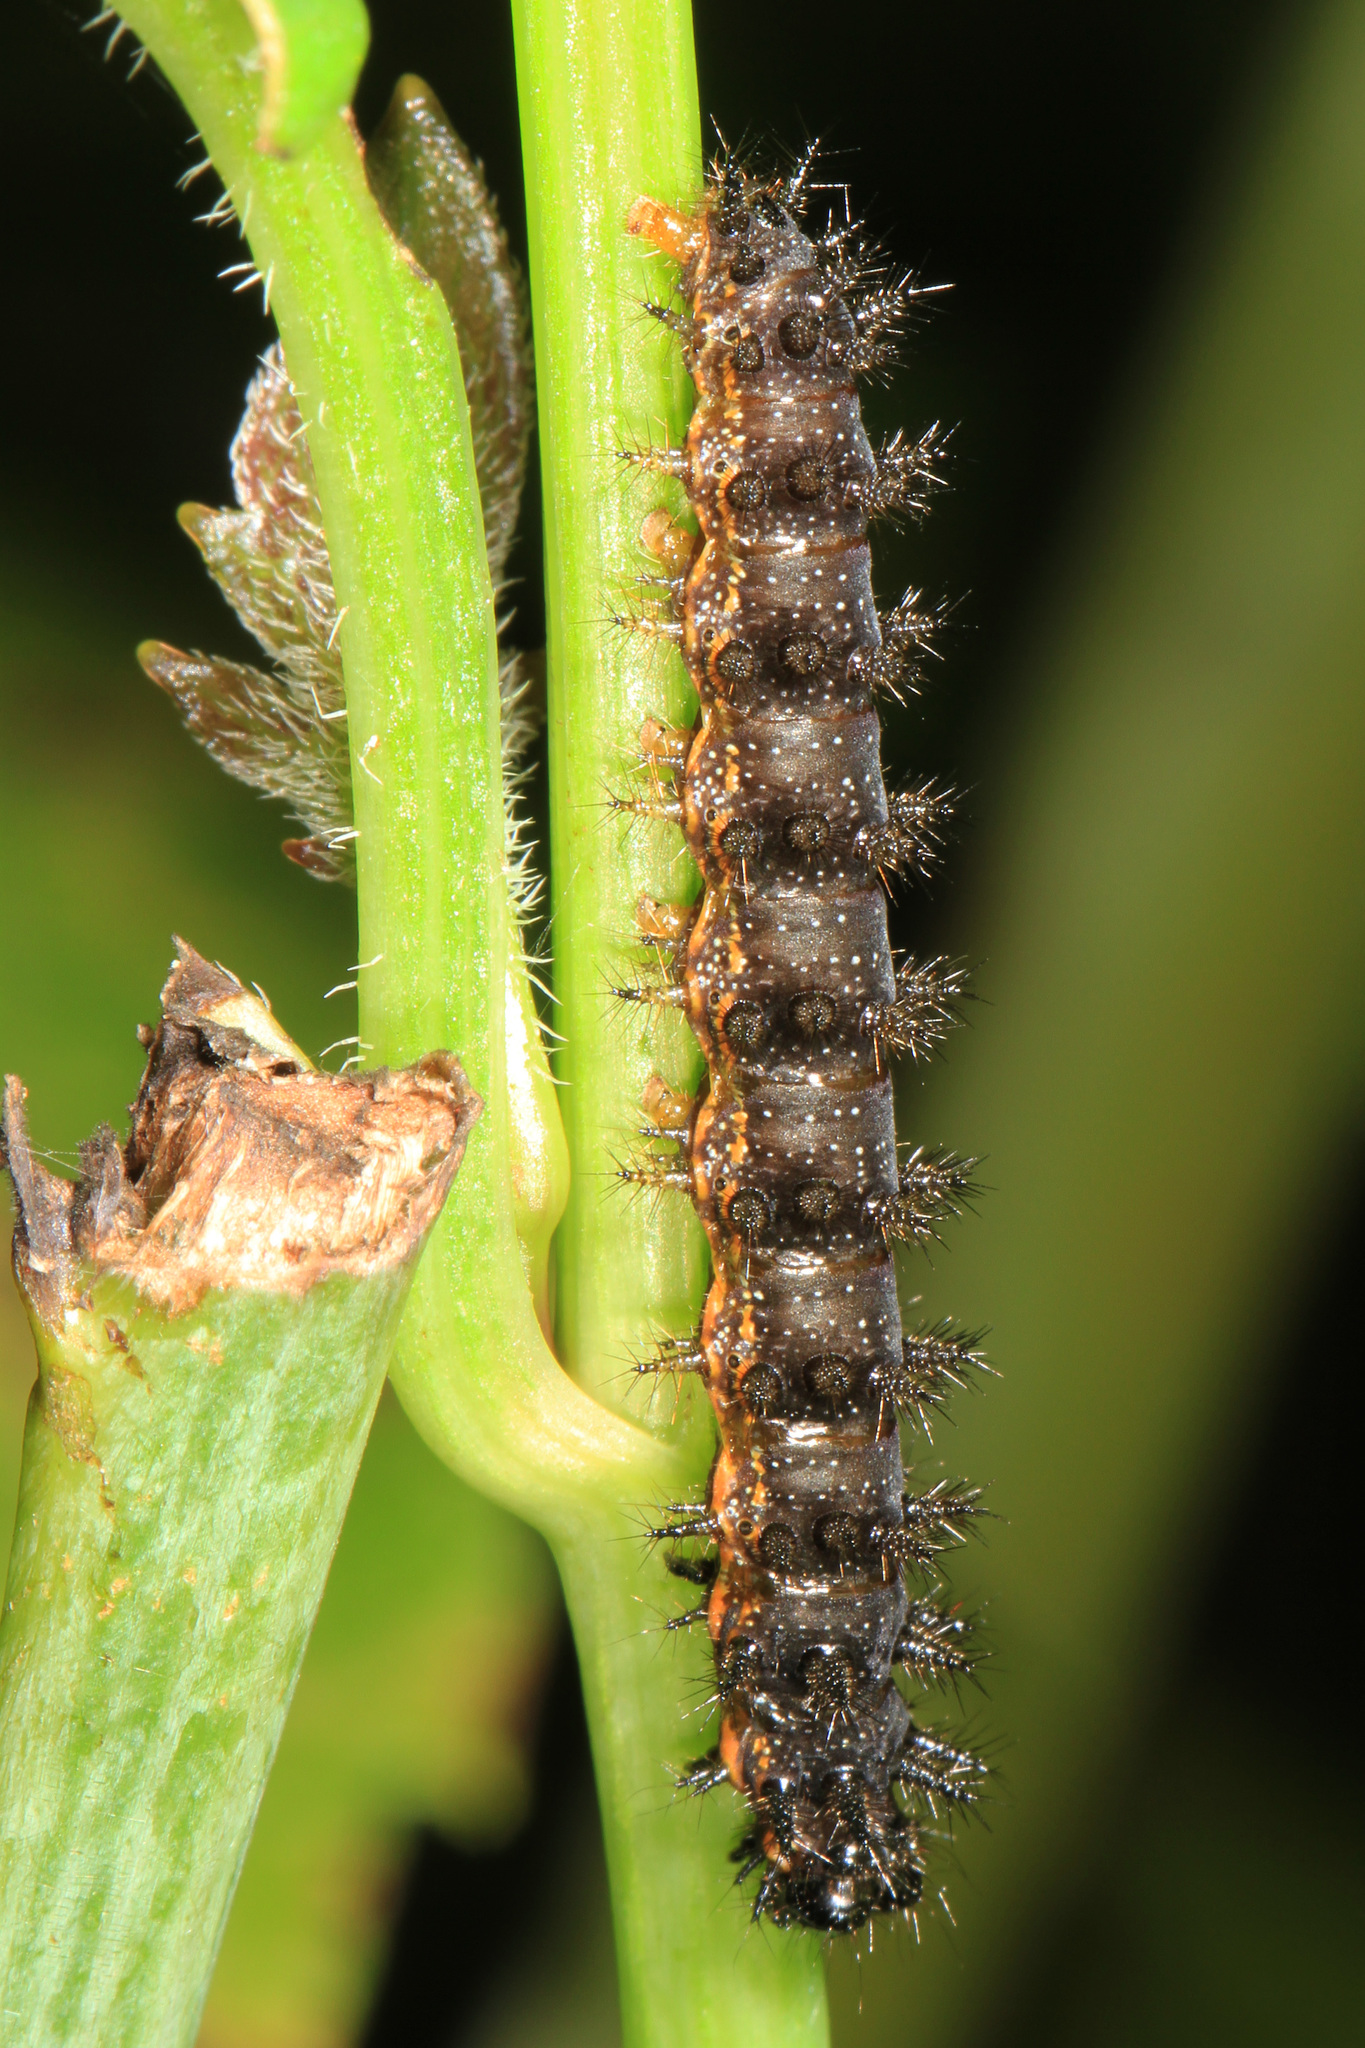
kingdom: Animalia
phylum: Arthropoda
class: Insecta
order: Lepidoptera
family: Nymphalidae
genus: Chlosyne
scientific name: Chlosyne nycteis
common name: Silvery checkerspot
